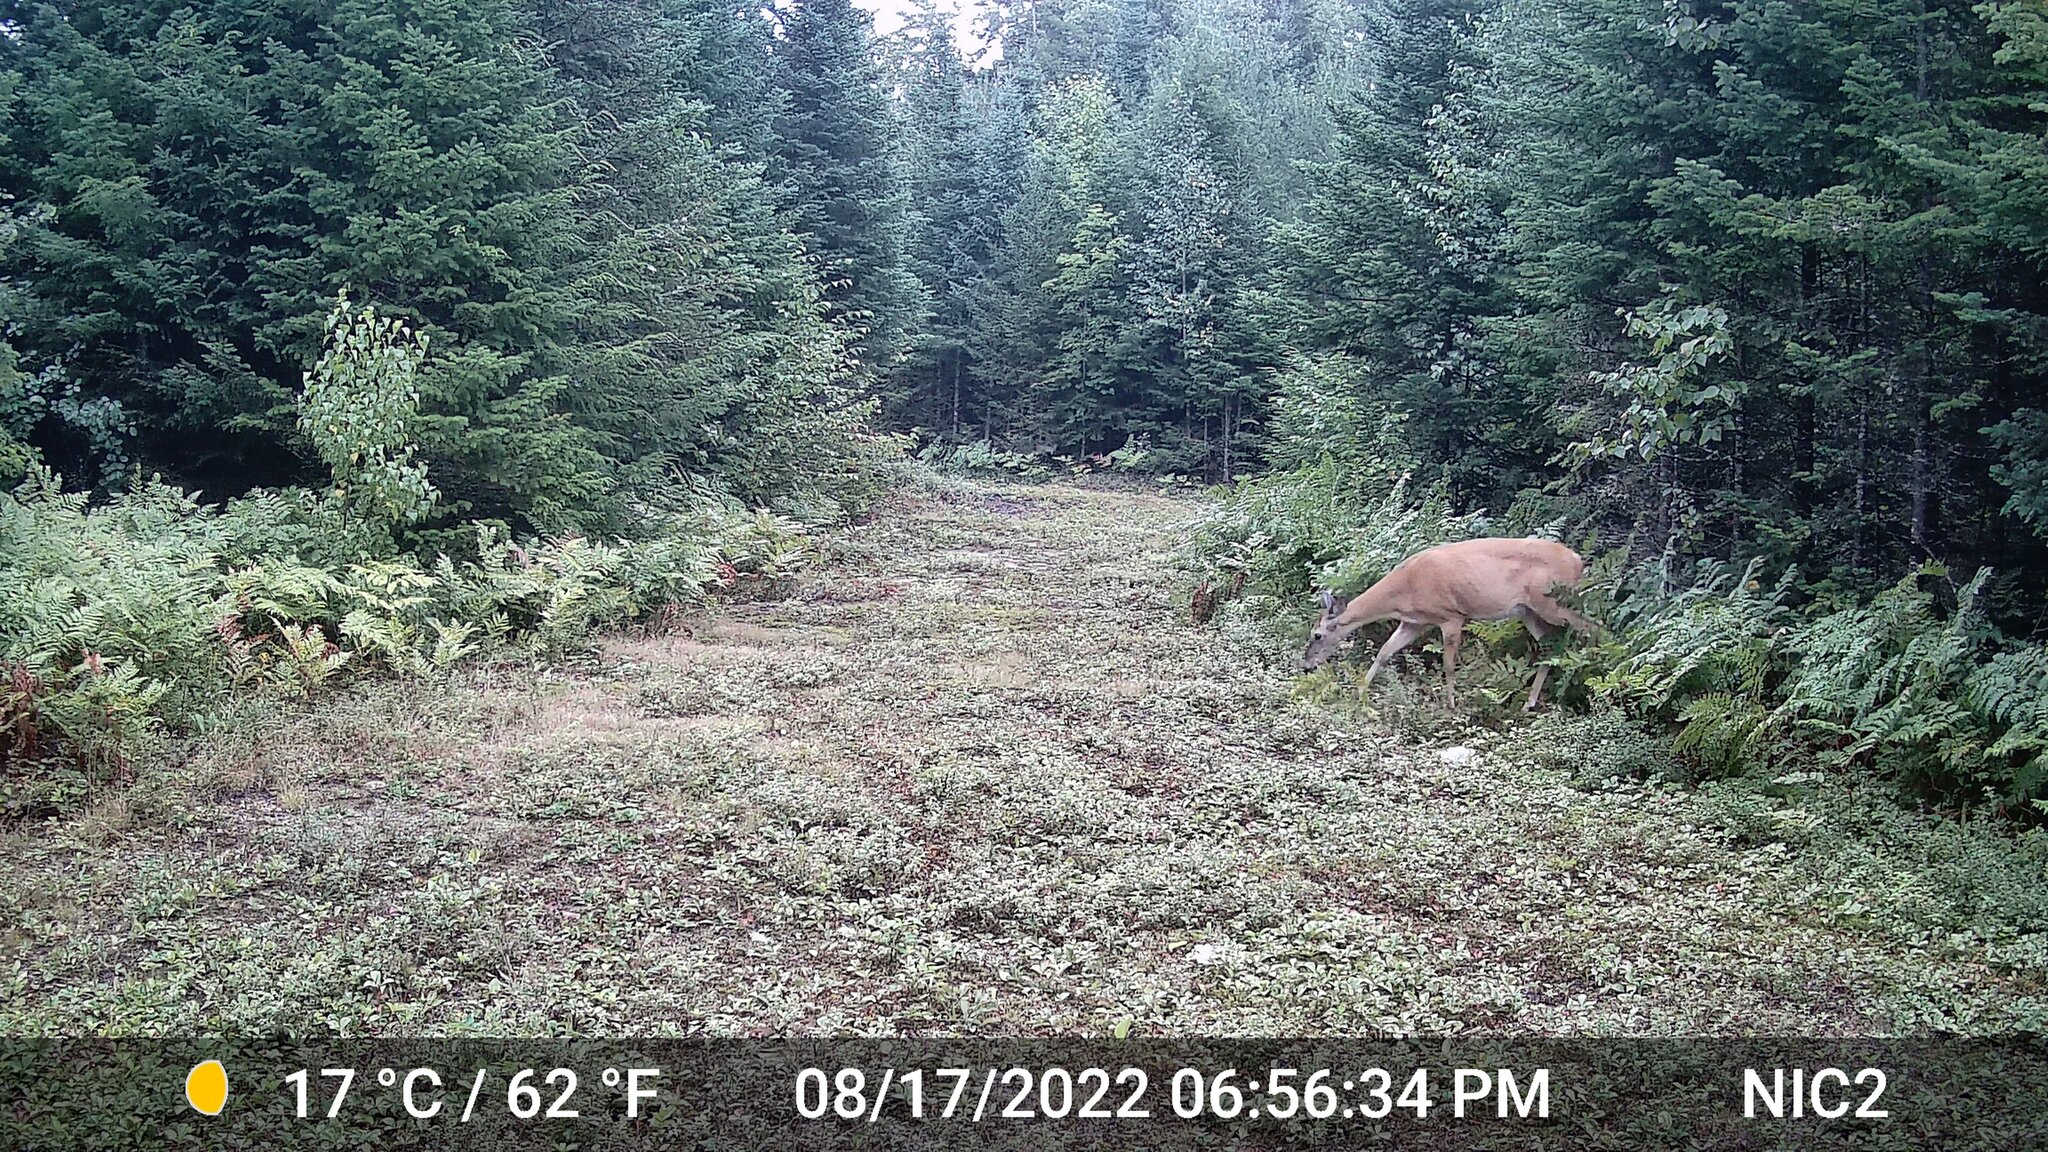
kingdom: Animalia
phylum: Chordata
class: Mammalia
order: Artiodactyla
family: Cervidae
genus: Odocoileus
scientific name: Odocoileus virginianus
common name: White-tailed deer
